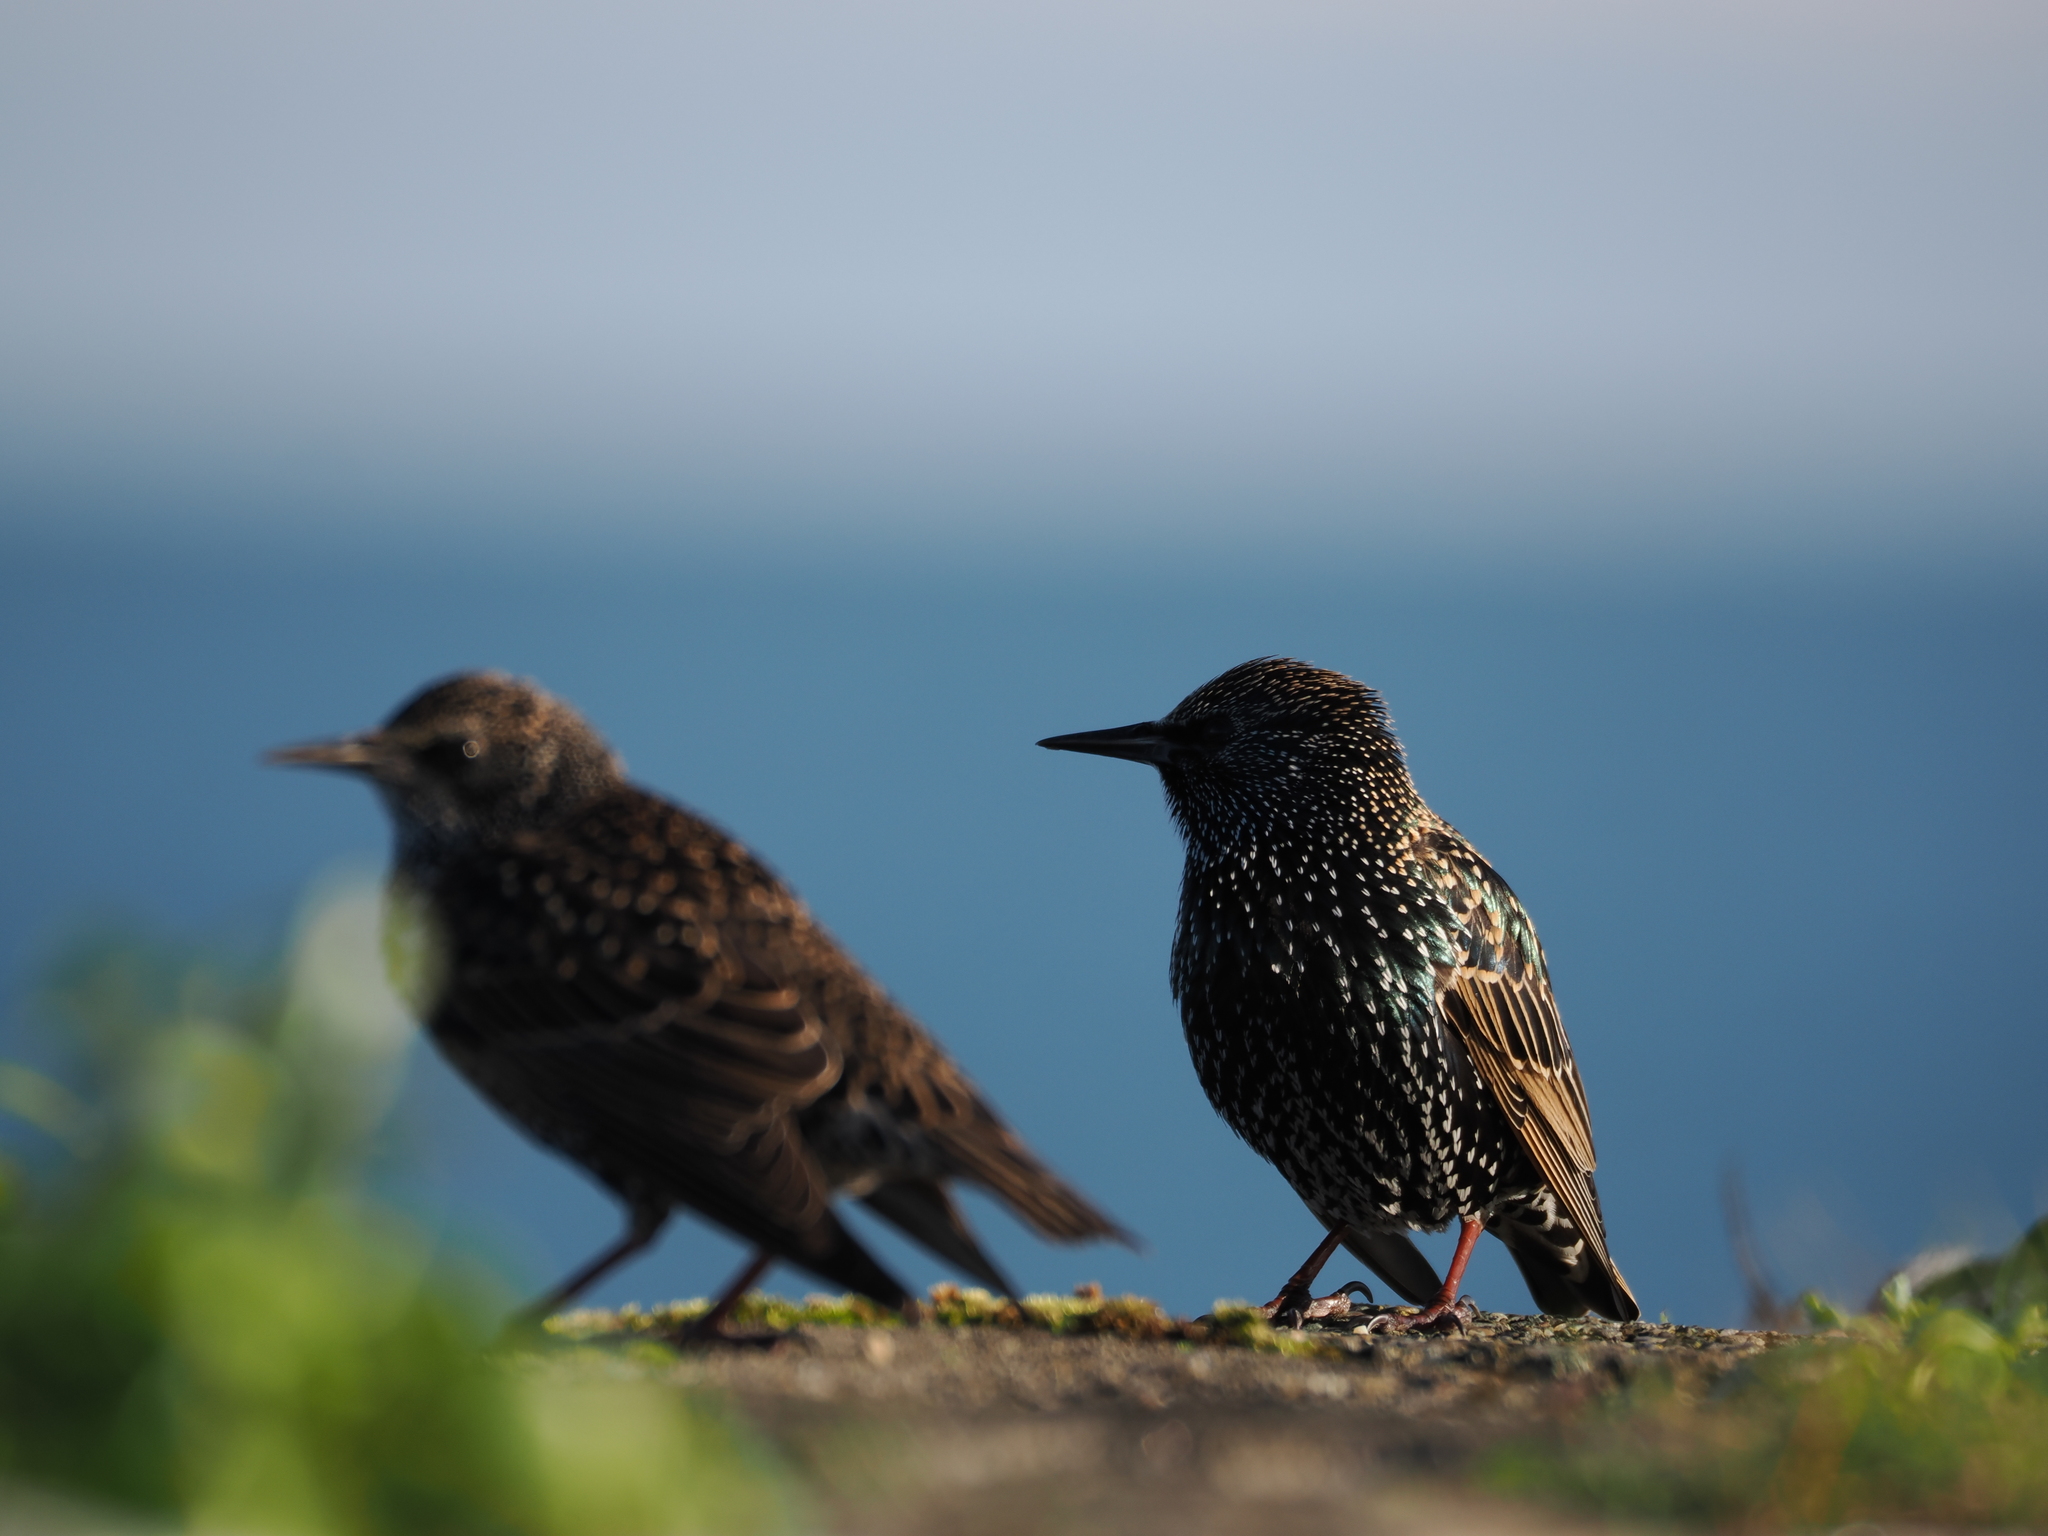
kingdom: Animalia
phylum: Chordata
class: Aves
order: Passeriformes
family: Sturnidae
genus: Sturnus
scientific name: Sturnus vulgaris
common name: Common starling
